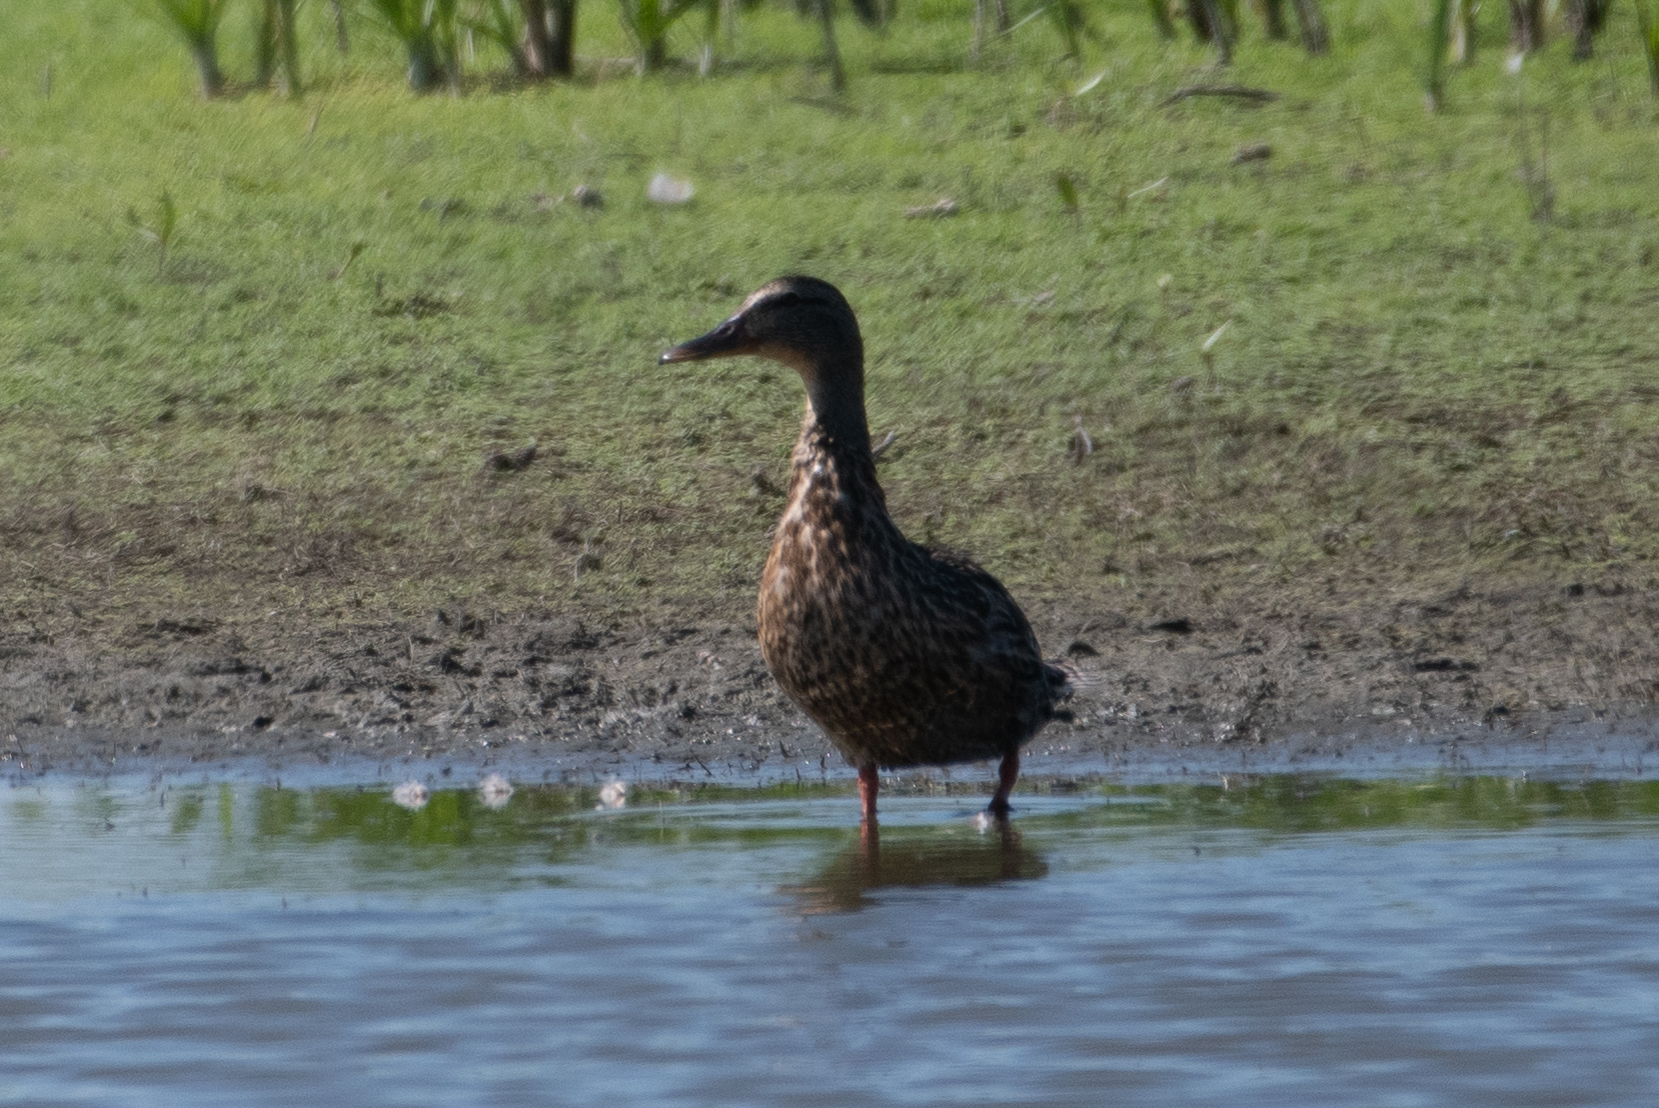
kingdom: Animalia
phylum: Chordata
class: Aves
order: Anseriformes
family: Anatidae
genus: Anas
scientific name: Anas platyrhynchos
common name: Mallard
